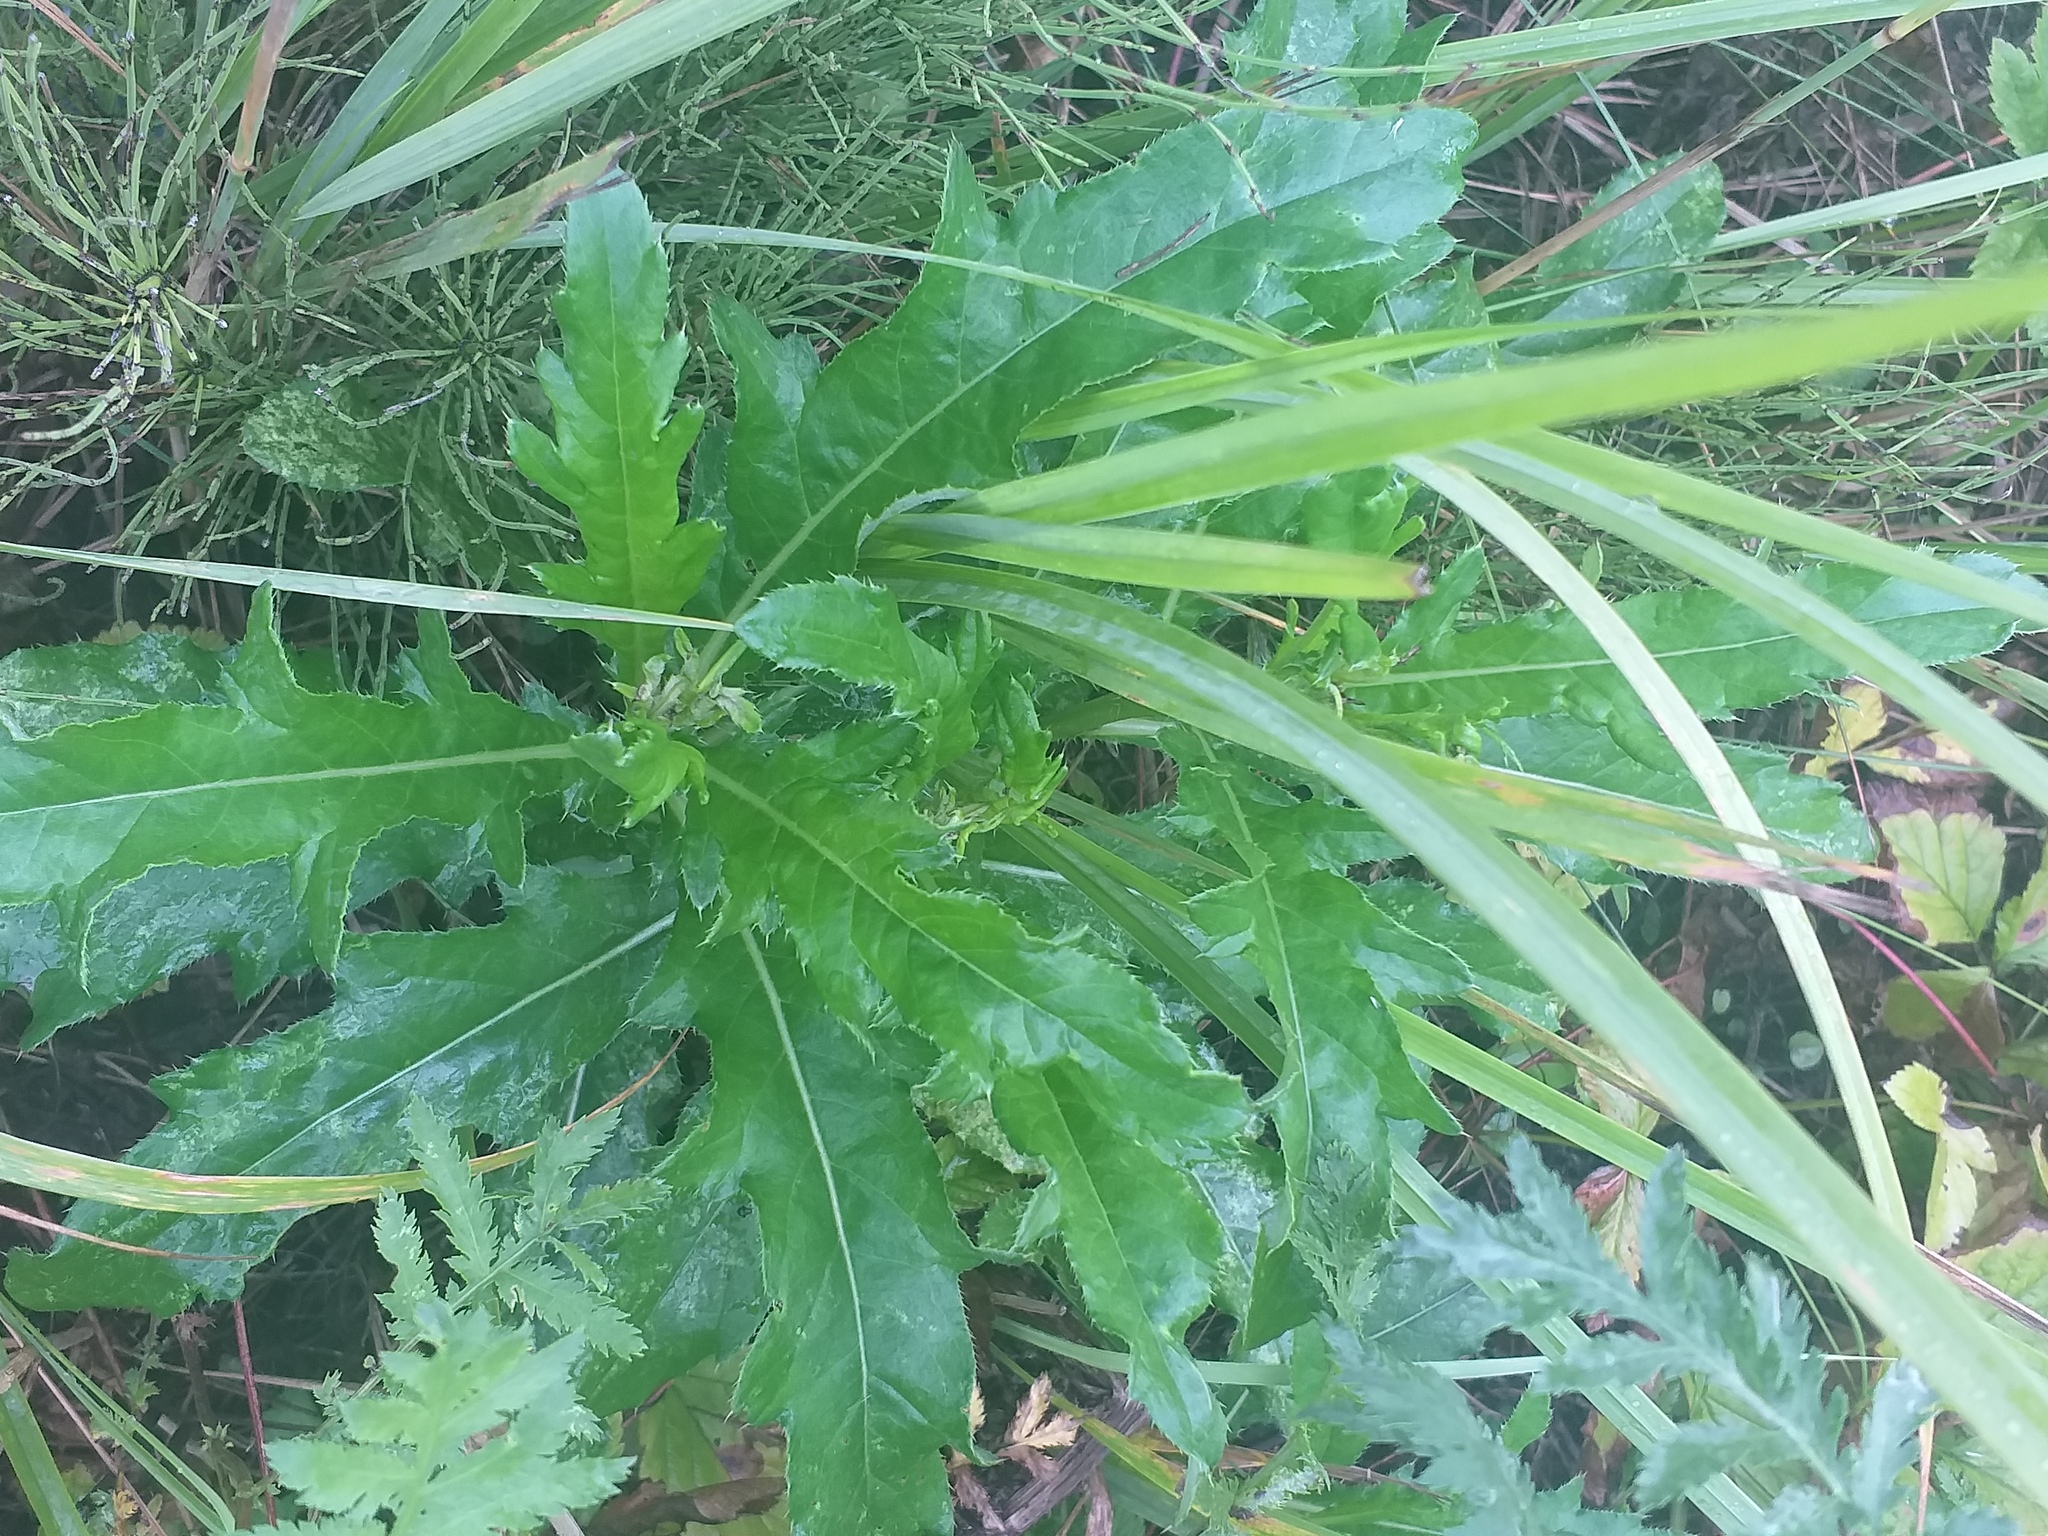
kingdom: Plantae
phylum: Tracheophyta
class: Magnoliopsida
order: Asterales
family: Asteraceae
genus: Cirsium
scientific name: Cirsium arvense
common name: Creeping thistle
